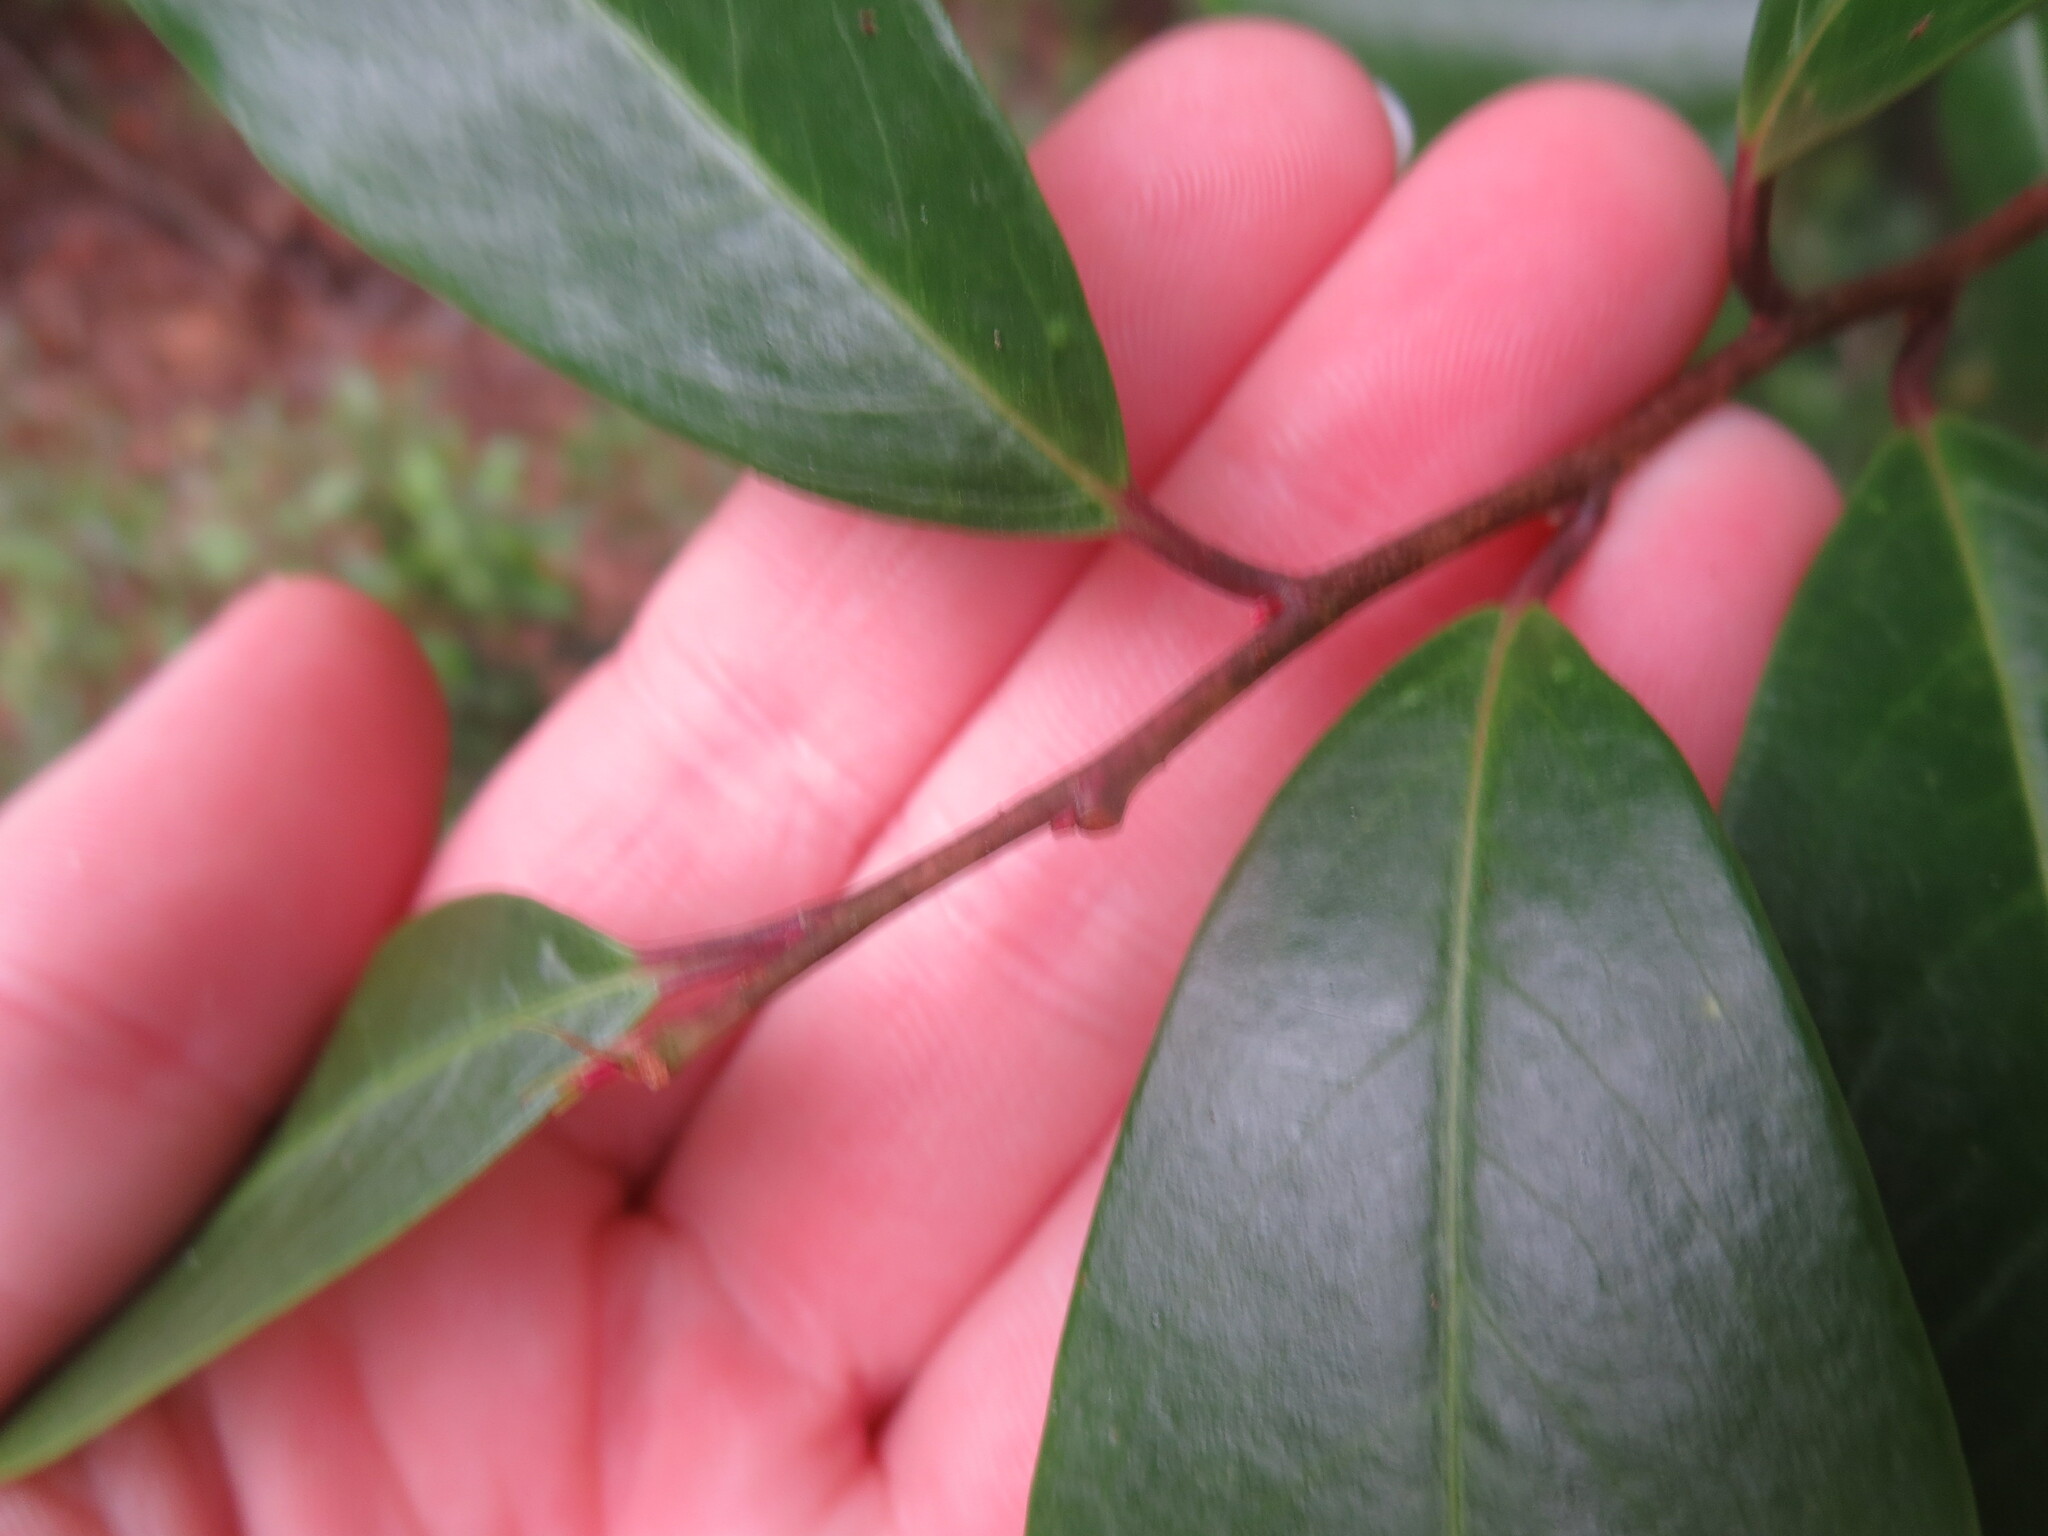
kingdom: Plantae
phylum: Tracheophyta
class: Magnoliopsida
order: Rosales
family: Rosaceae
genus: Prunus
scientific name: Prunus caroliniana
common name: Carolina laurel cherry
